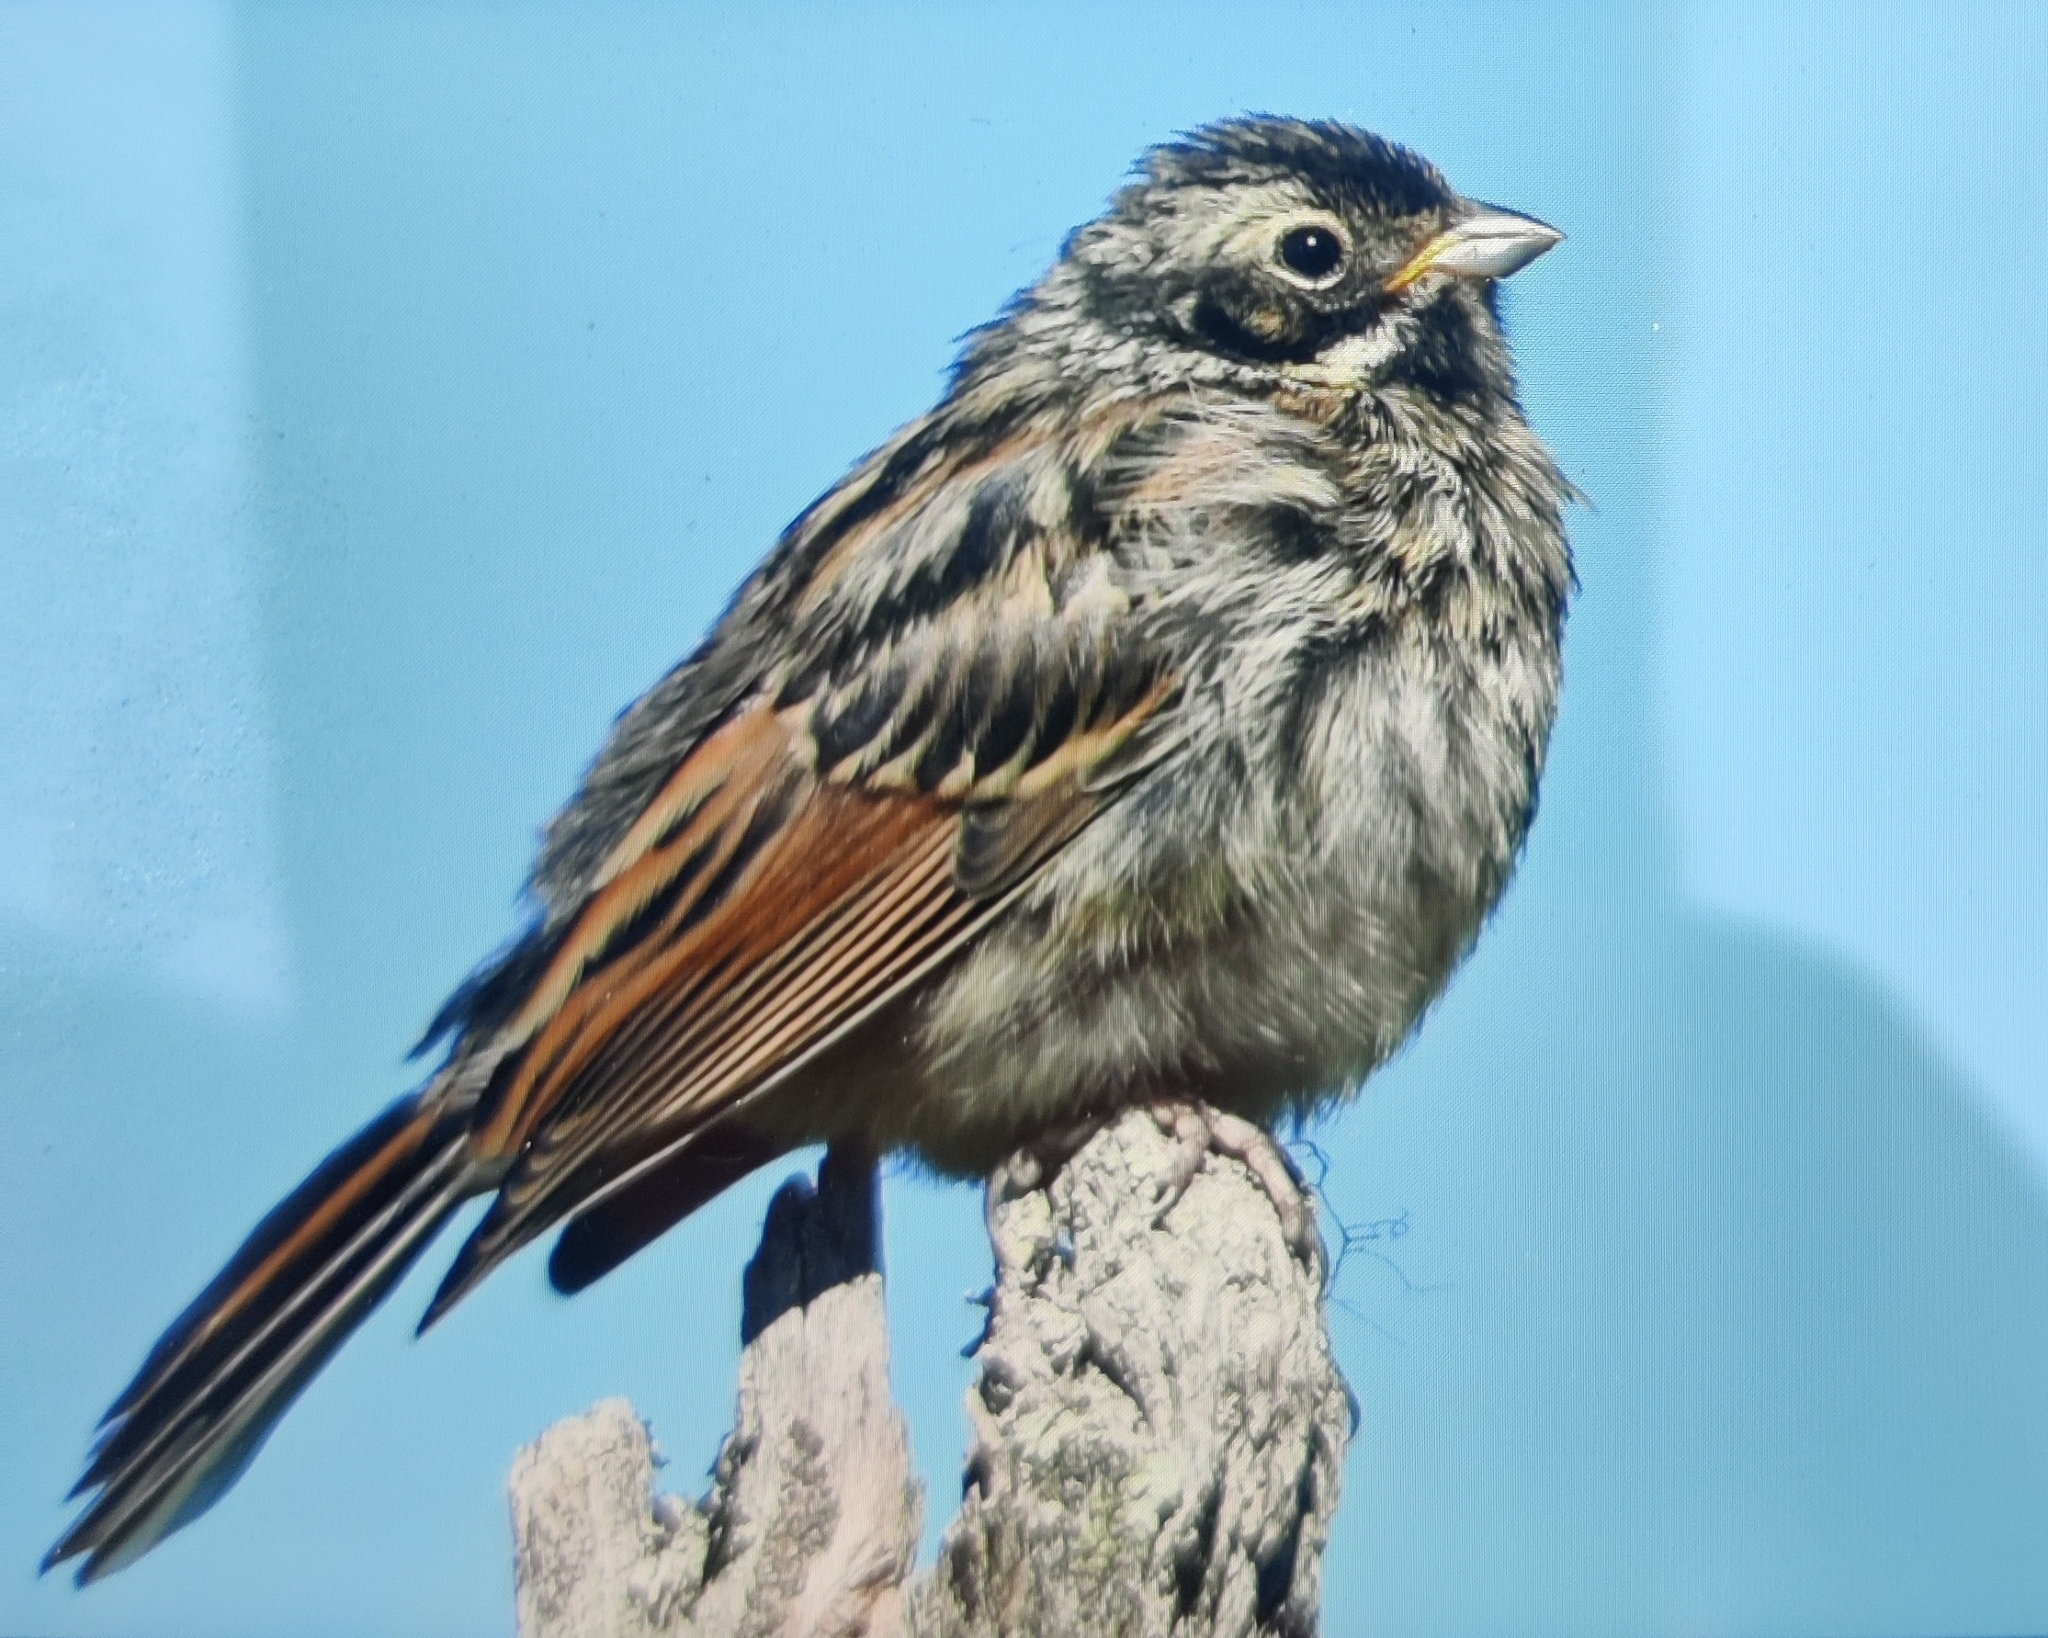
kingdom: Animalia
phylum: Chordata
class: Aves
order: Passeriformes
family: Emberizidae
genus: Emberiza
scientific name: Emberiza schoeniclus
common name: Reed bunting
